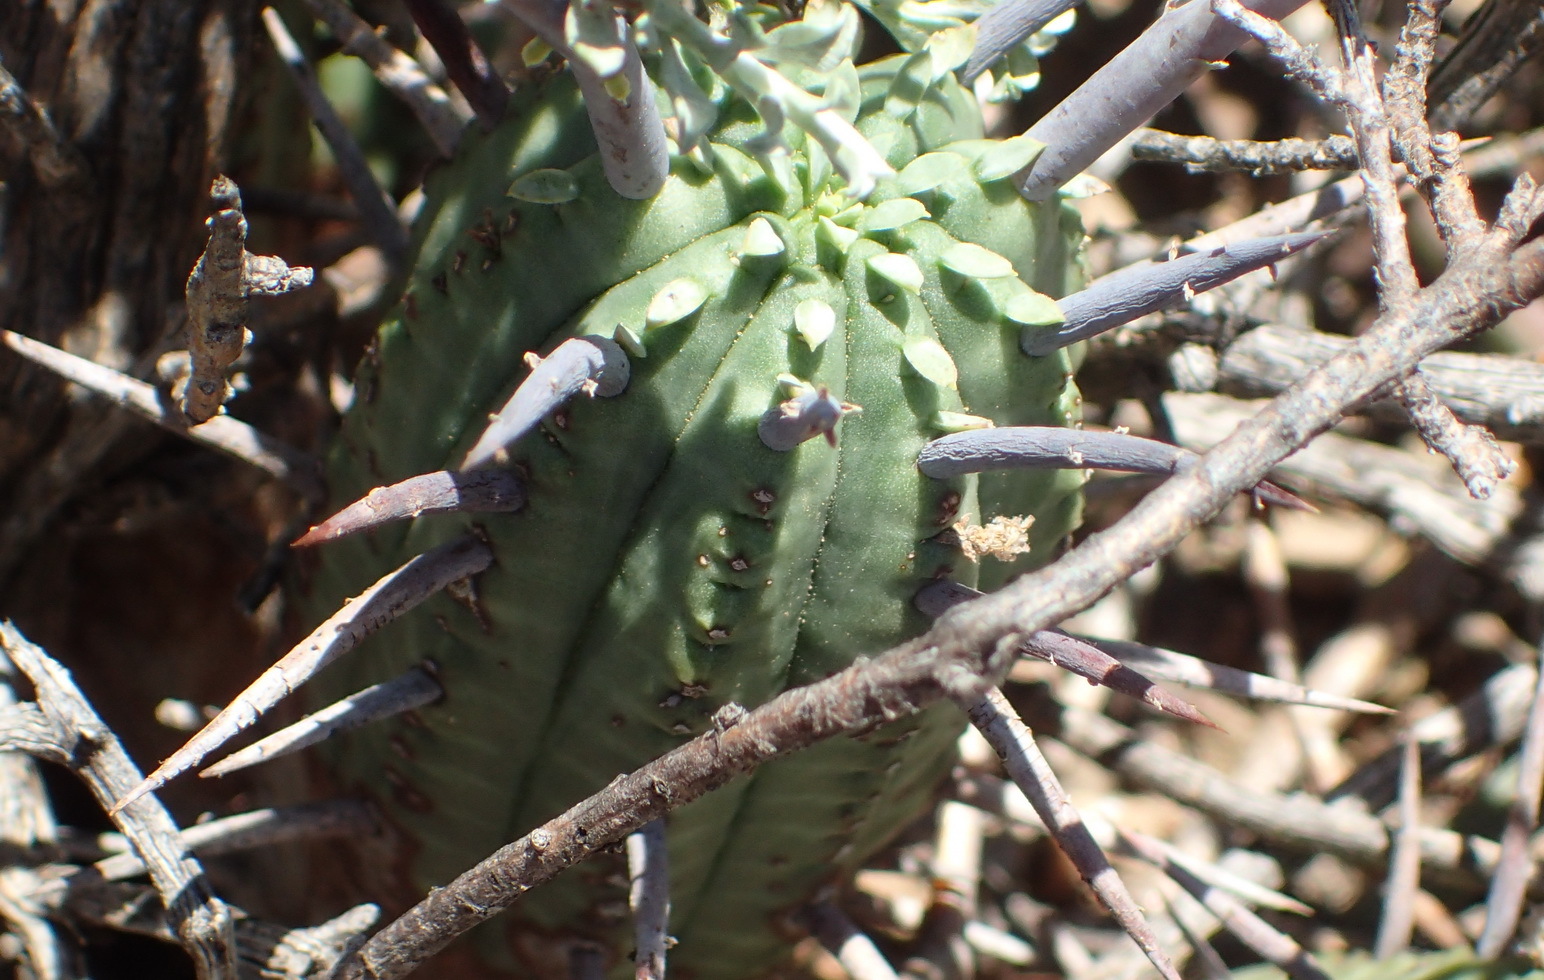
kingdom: Plantae
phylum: Tracheophyta
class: Magnoliopsida
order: Malpighiales
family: Euphorbiaceae
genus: Euphorbia
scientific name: Euphorbia ferox
